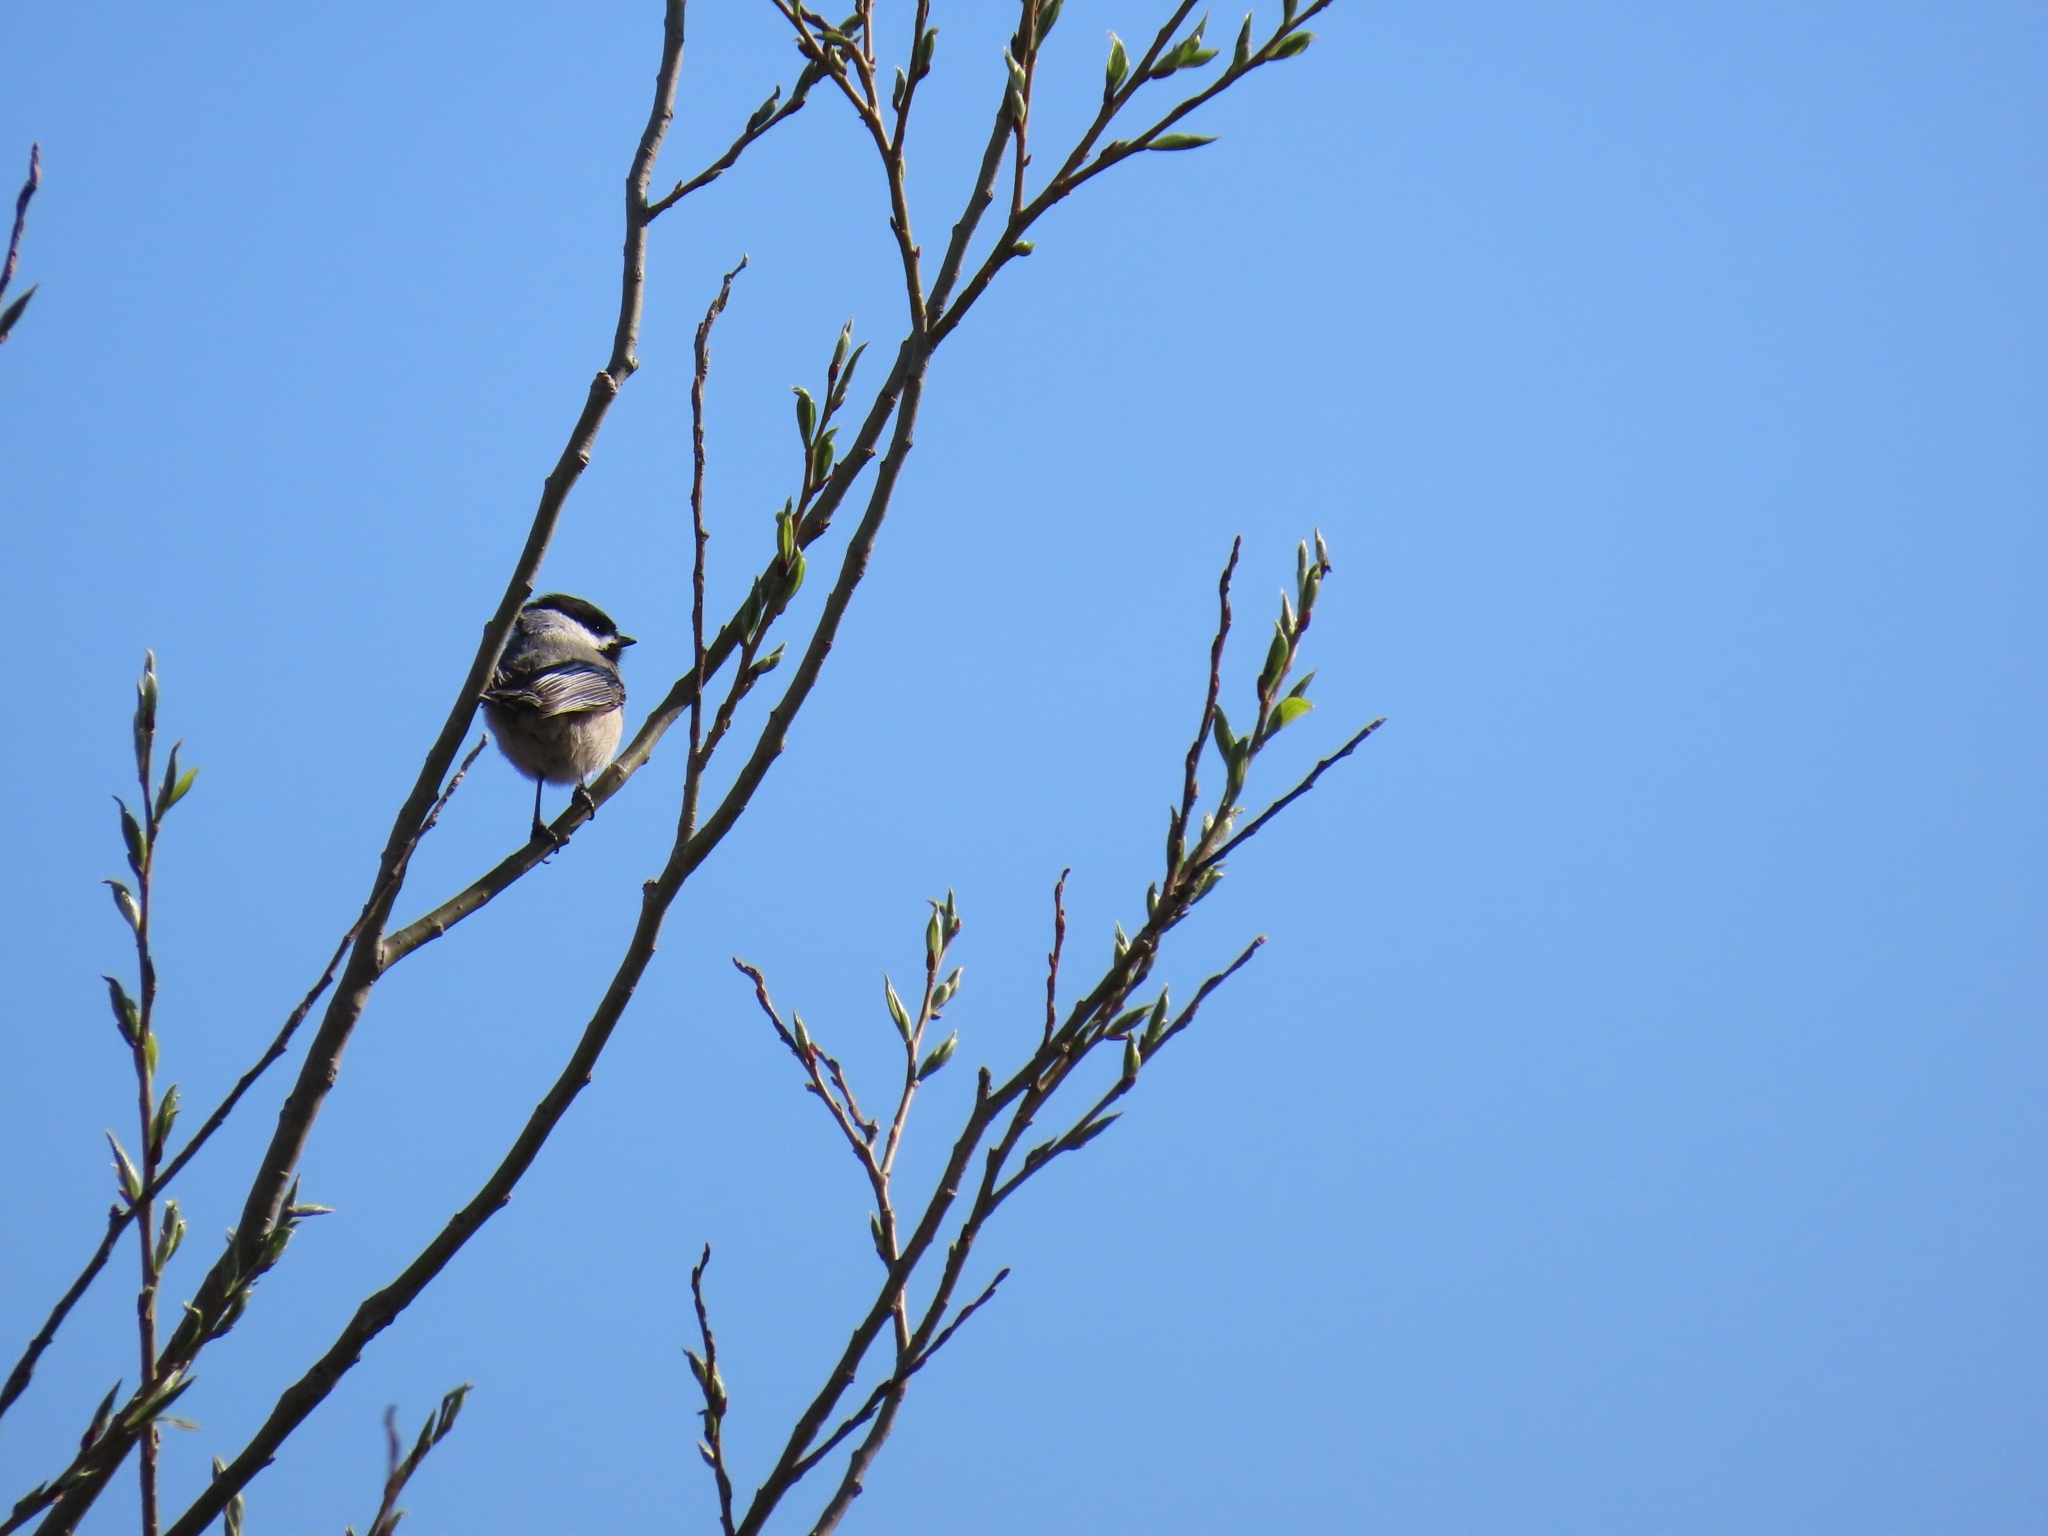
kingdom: Animalia
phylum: Chordata
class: Aves
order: Passeriformes
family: Paridae
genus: Poecile
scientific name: Poecile atricapillus
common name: Black-capped chickadee
